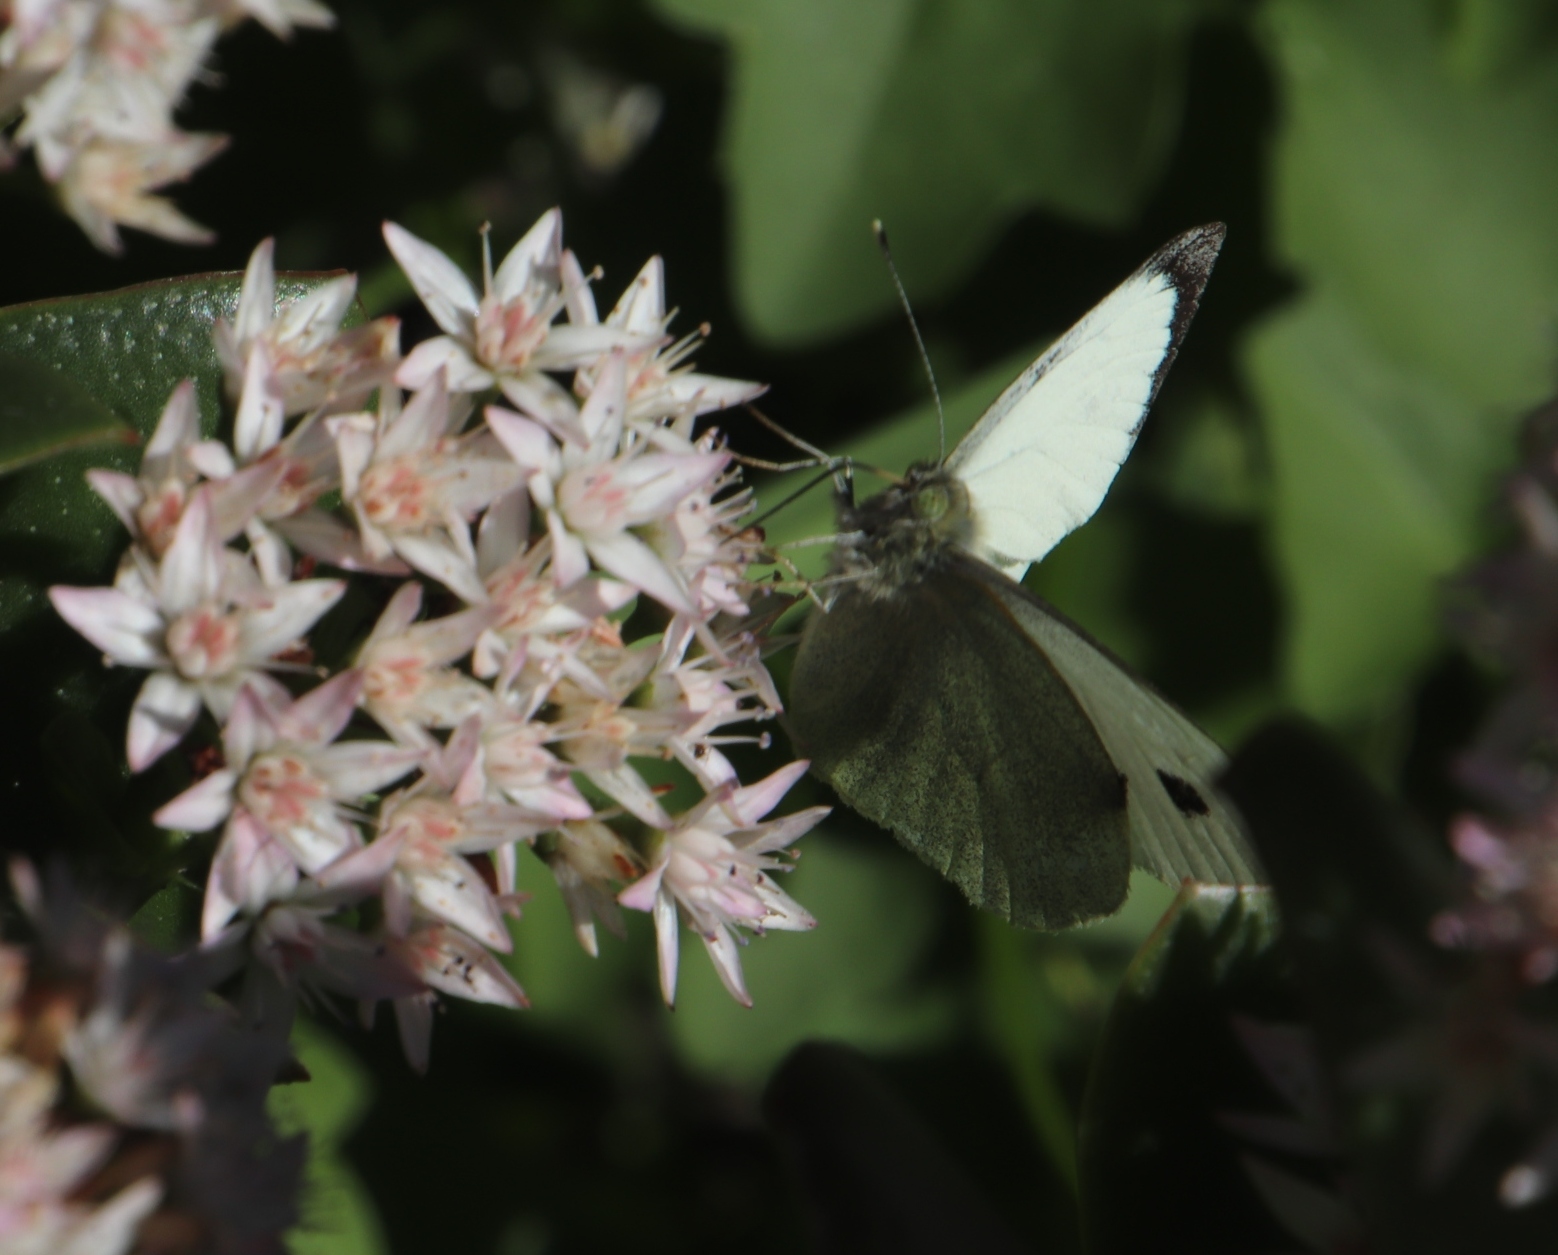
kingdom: Animalia
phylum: Arthropoda
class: Insecta
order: Lepidoptera
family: Pieridae
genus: Pieris
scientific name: Pieris brassicae
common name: Large white
